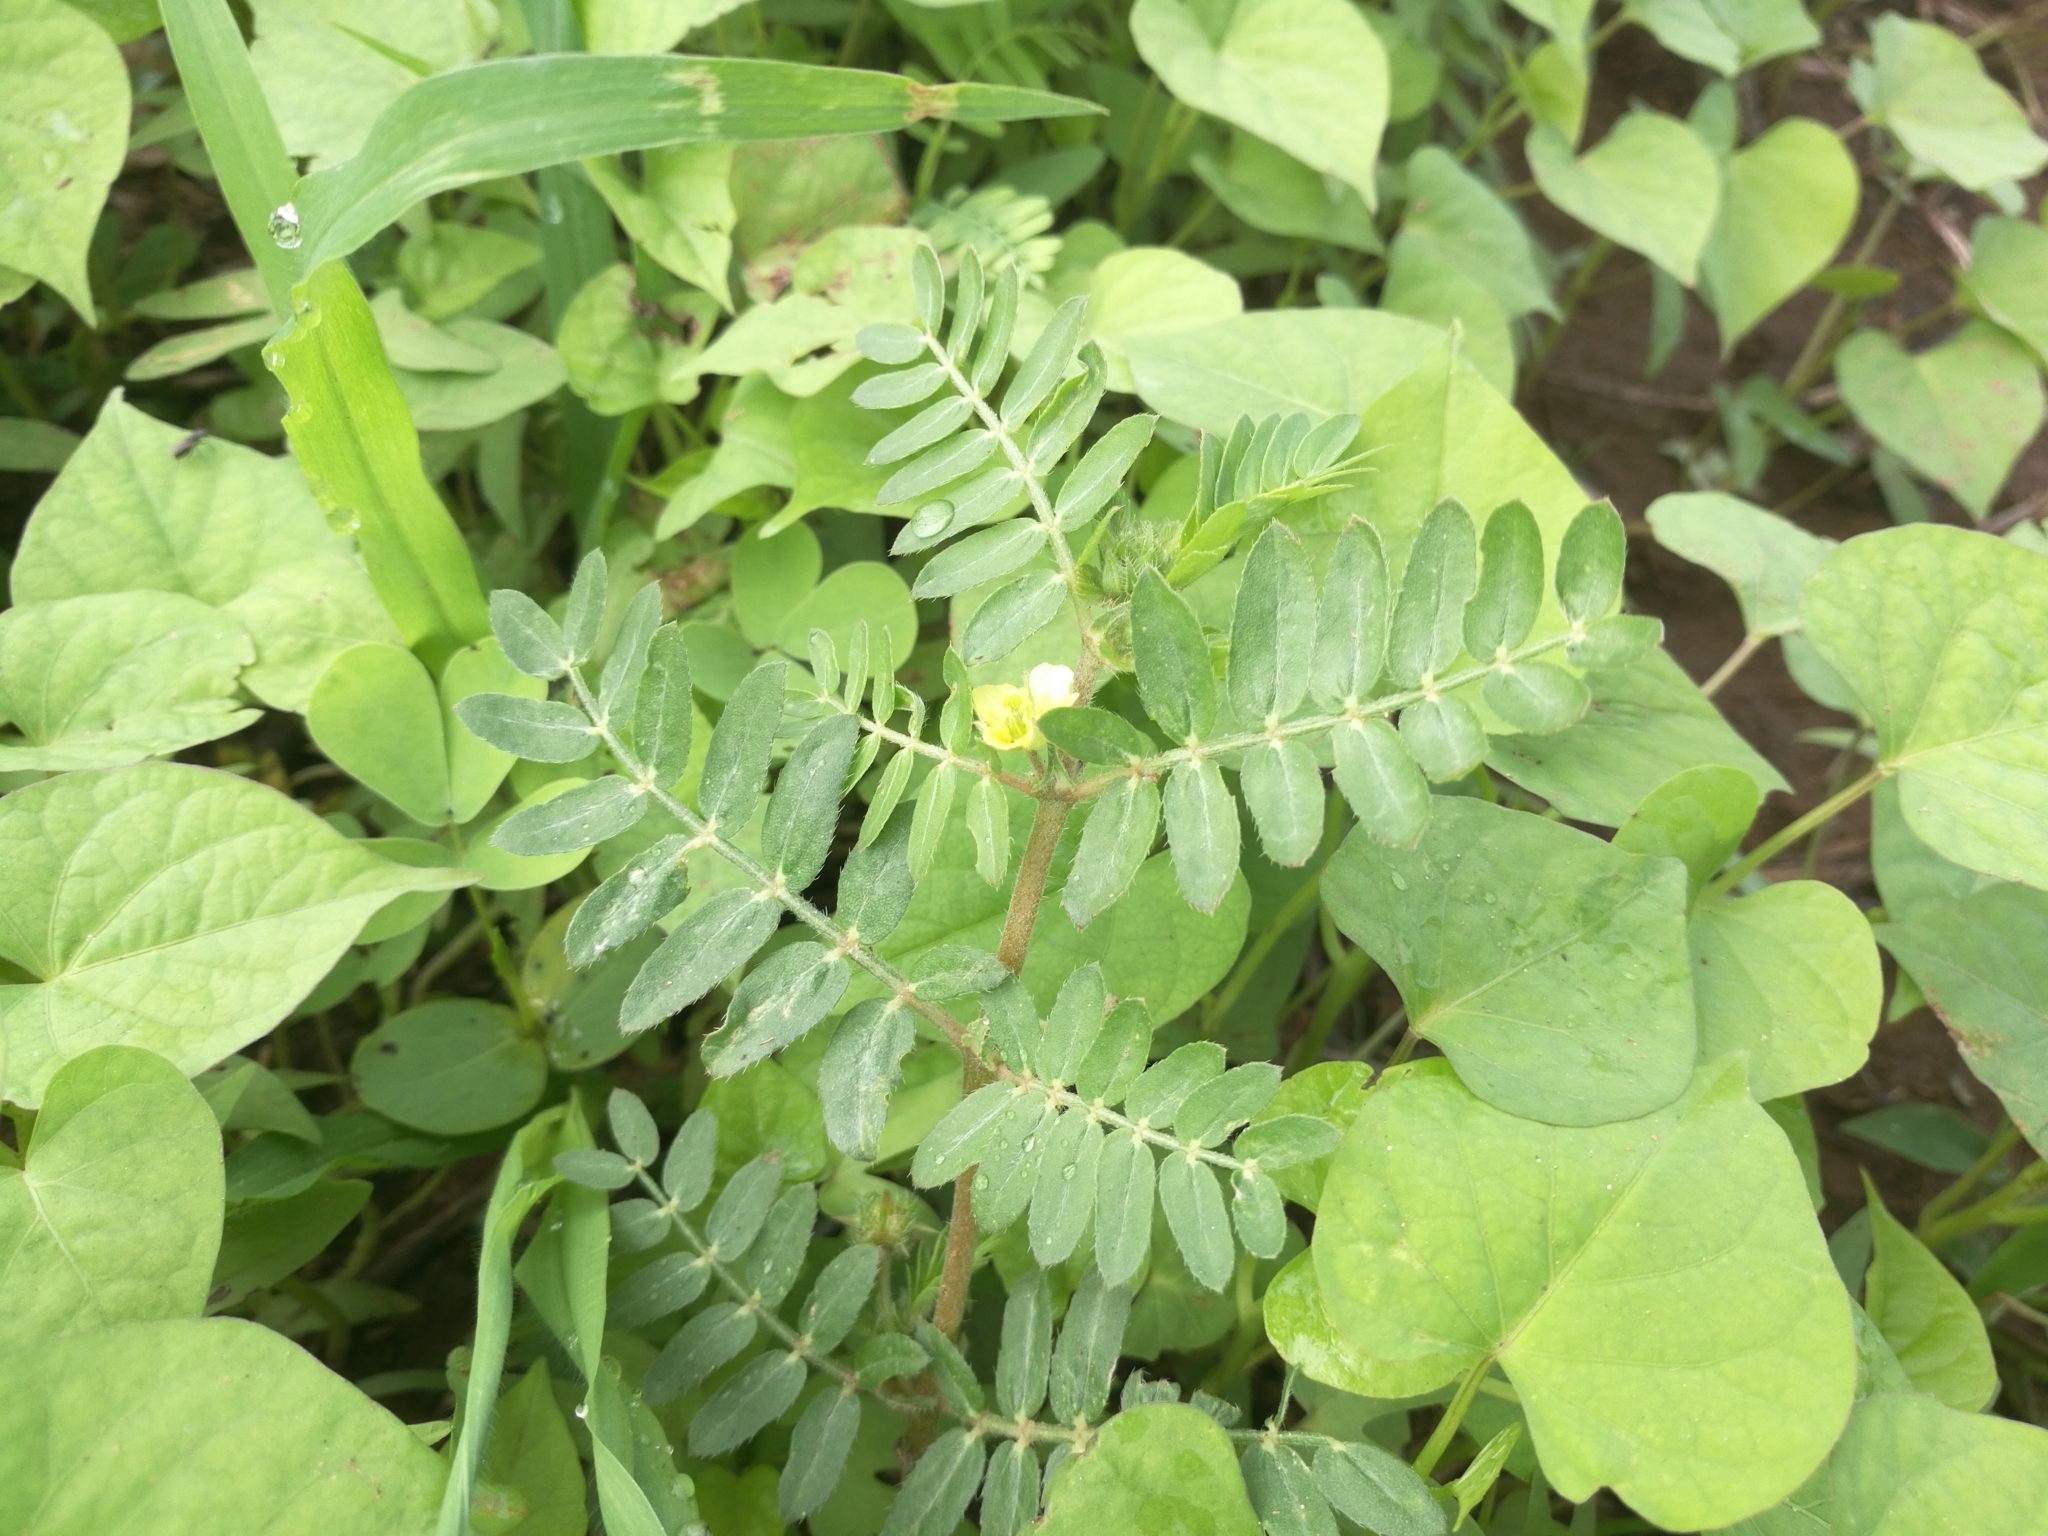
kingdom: Plantae
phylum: Tracheophyta
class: Magnoliopsida
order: Zygophyllales
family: Zygophyllaceae
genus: Tribulus
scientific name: Tribulus terrestris
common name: Puncturevine
